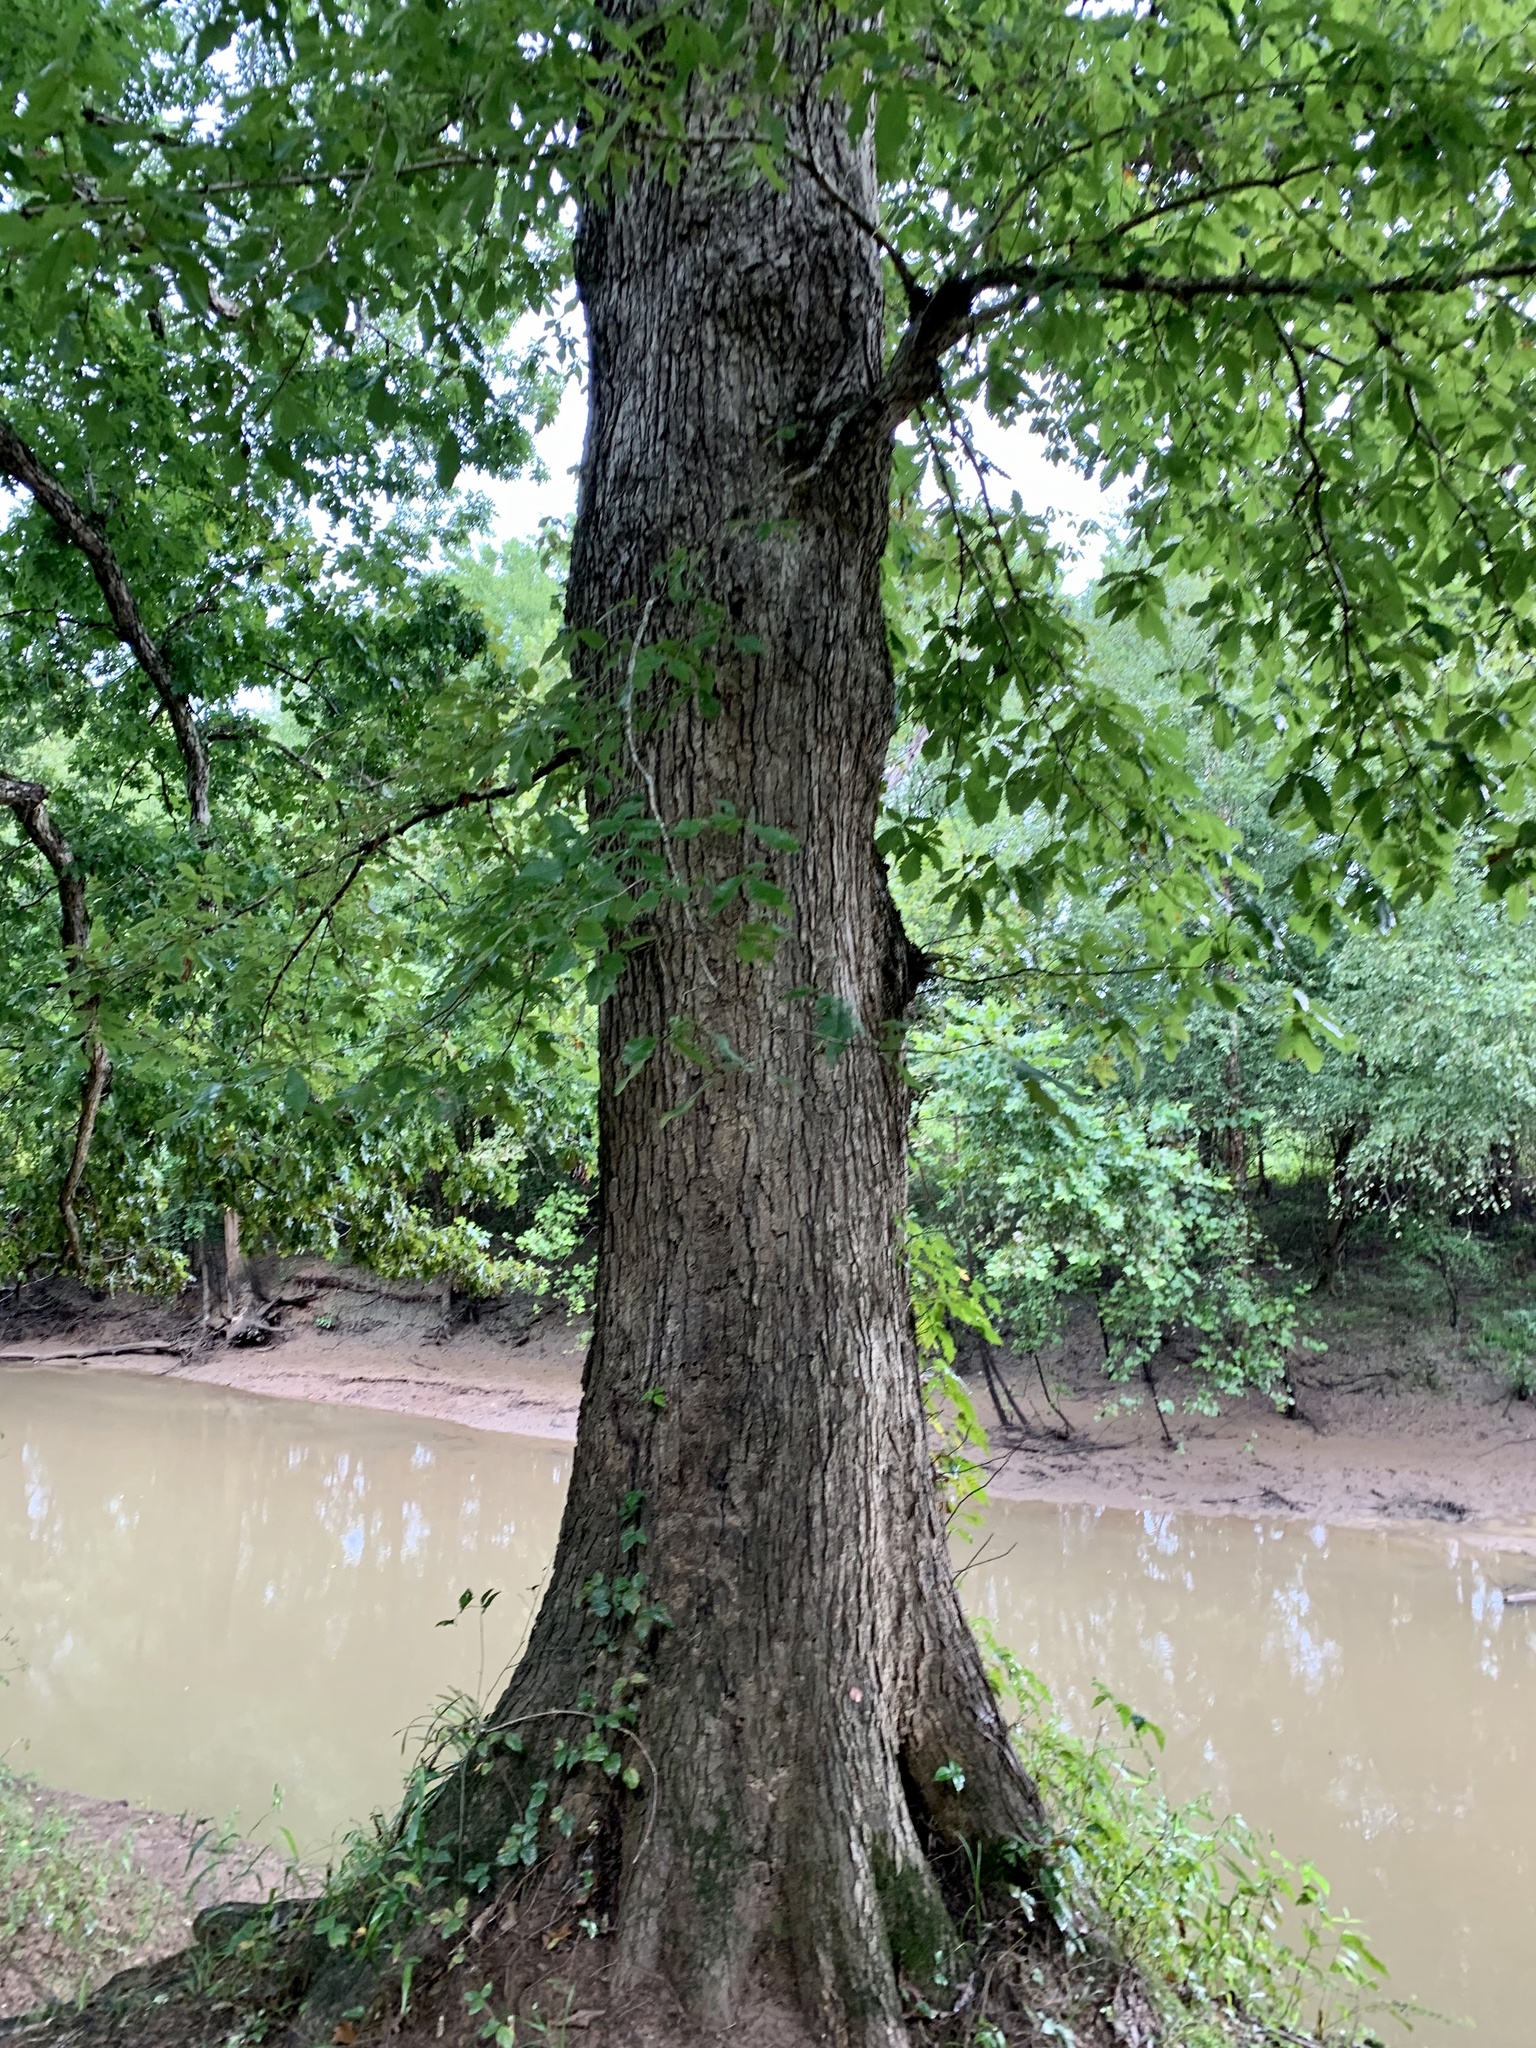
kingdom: Plantae
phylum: Tracheophyta
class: Magnoliopsida
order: Fagales
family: Fagaceae
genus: Quercus
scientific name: Quercus michauxii
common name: Swamp chestnut oak
